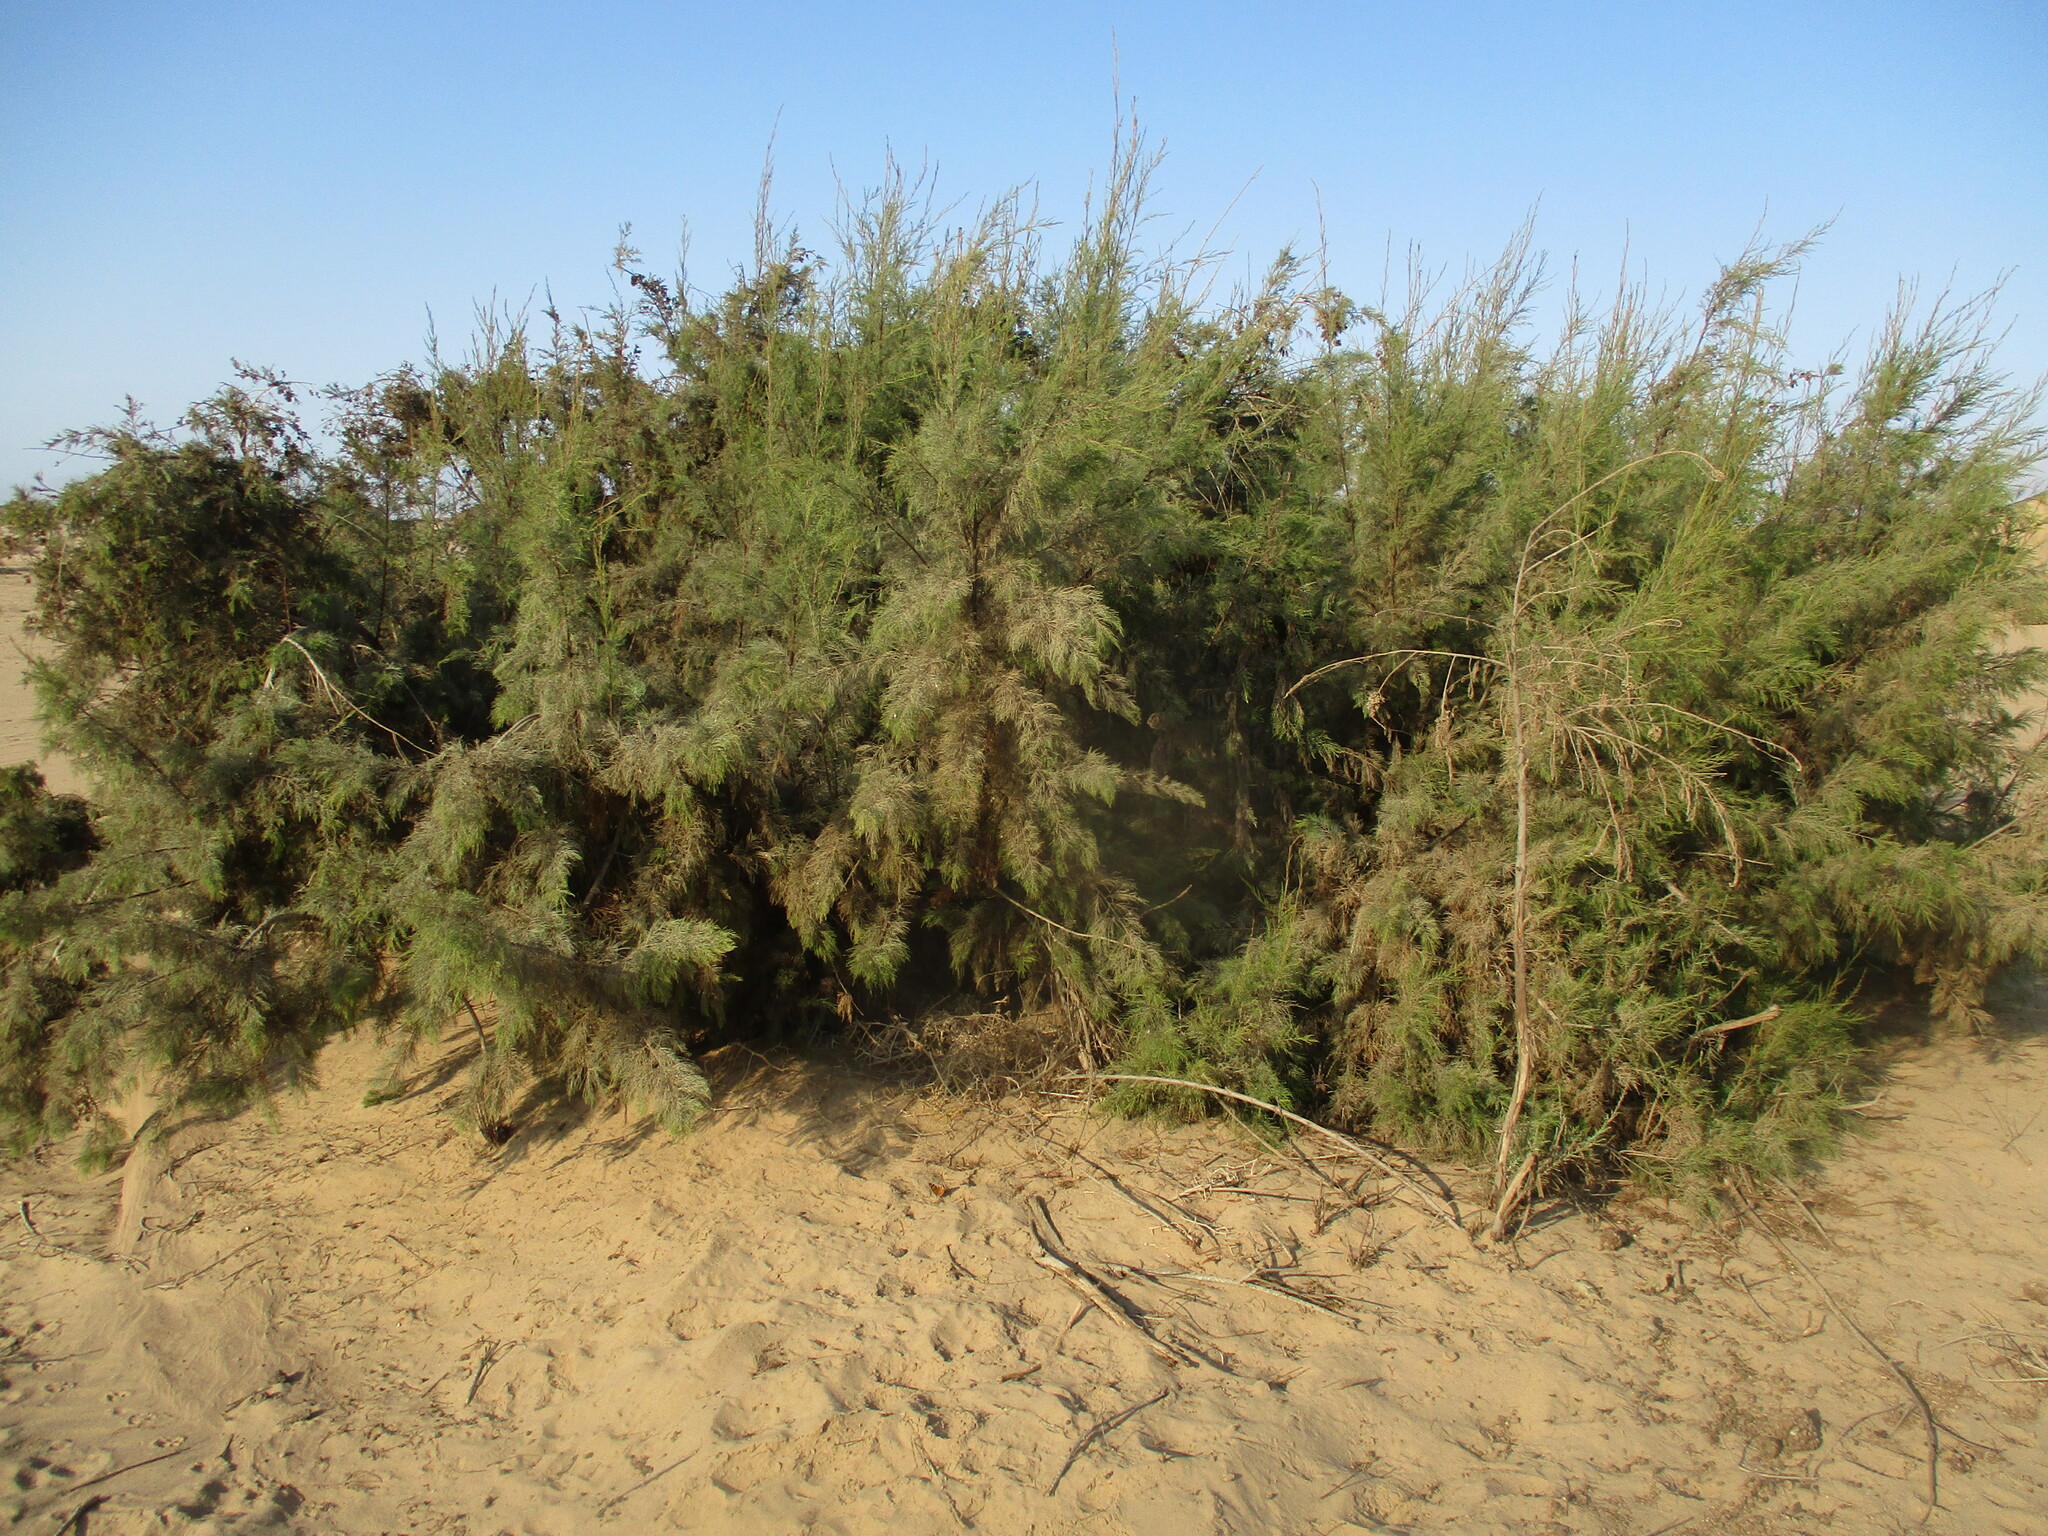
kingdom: Plantae
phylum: Tracheophyta
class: Magnoliopsida
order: Caryophyllales
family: Tamaricaceae
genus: Tamarix
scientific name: Tamarix usneoides
